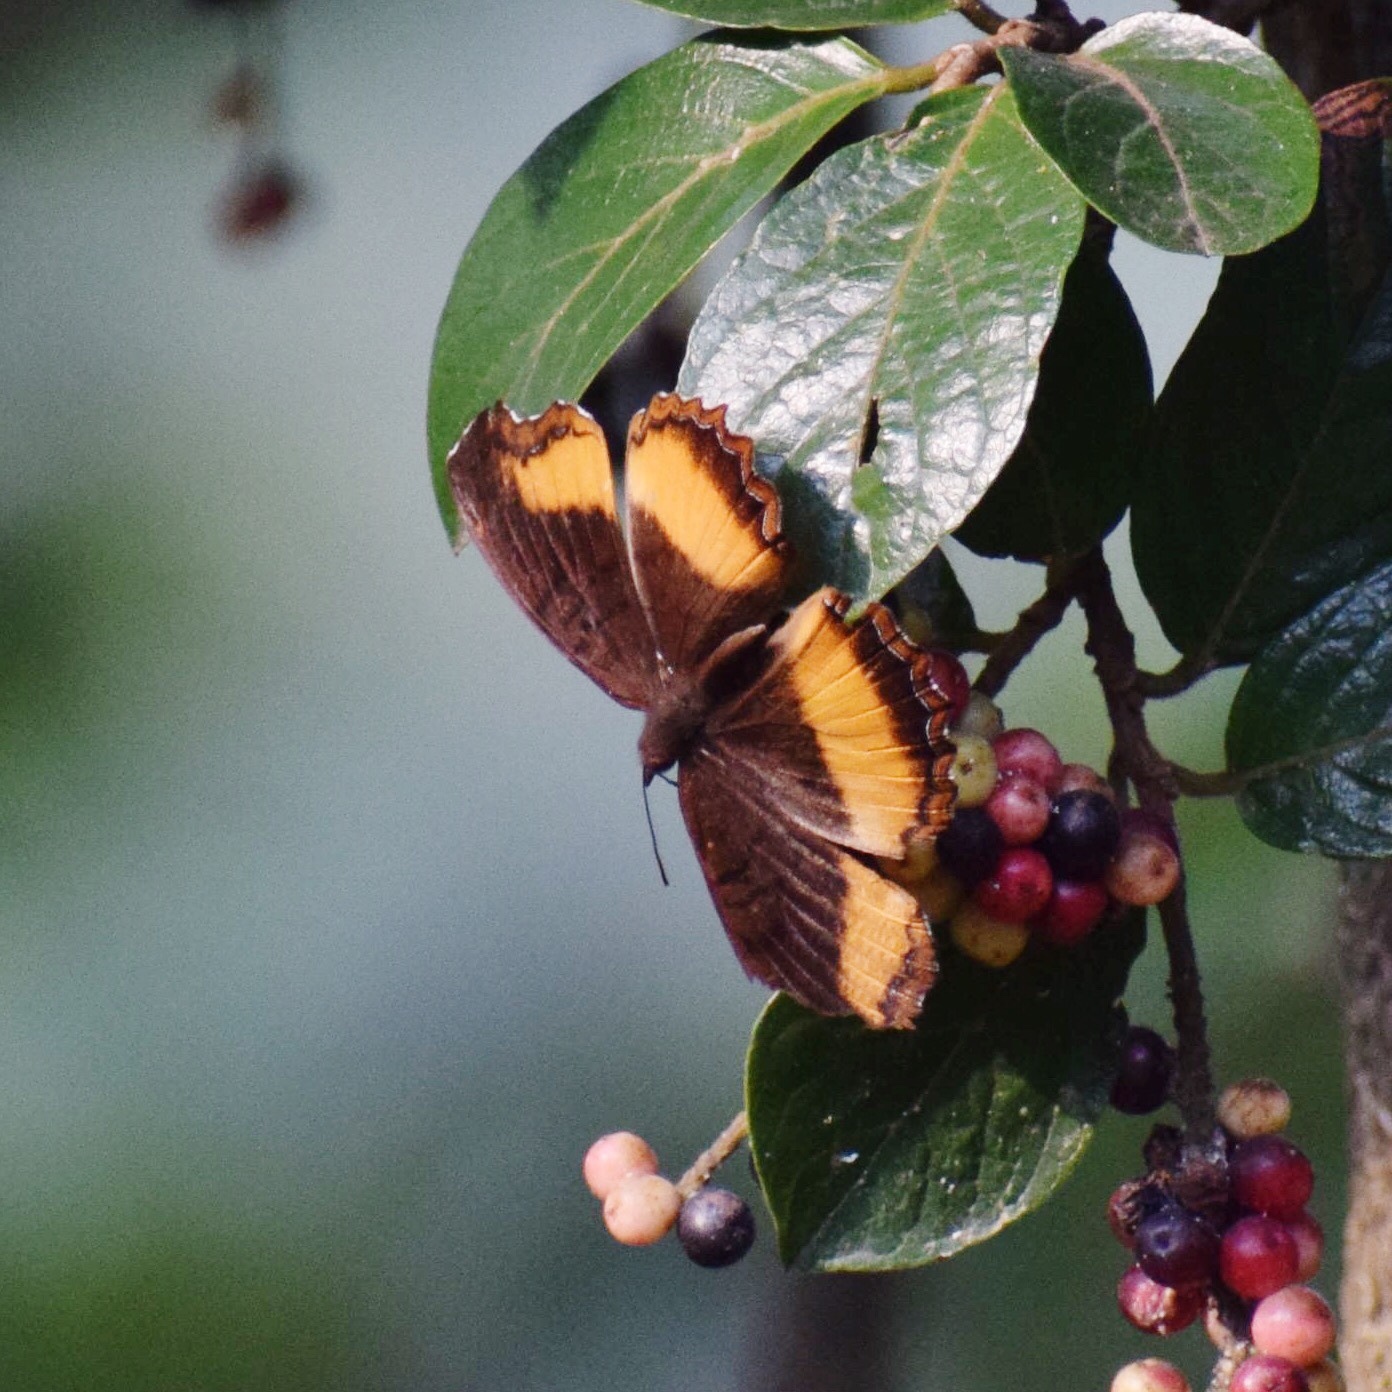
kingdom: Animalia
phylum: Arthropoda
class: Insecta
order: Lepidoptera
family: Nymphalidae
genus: Eurytela
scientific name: Eurytela dryope
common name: Golden piper
